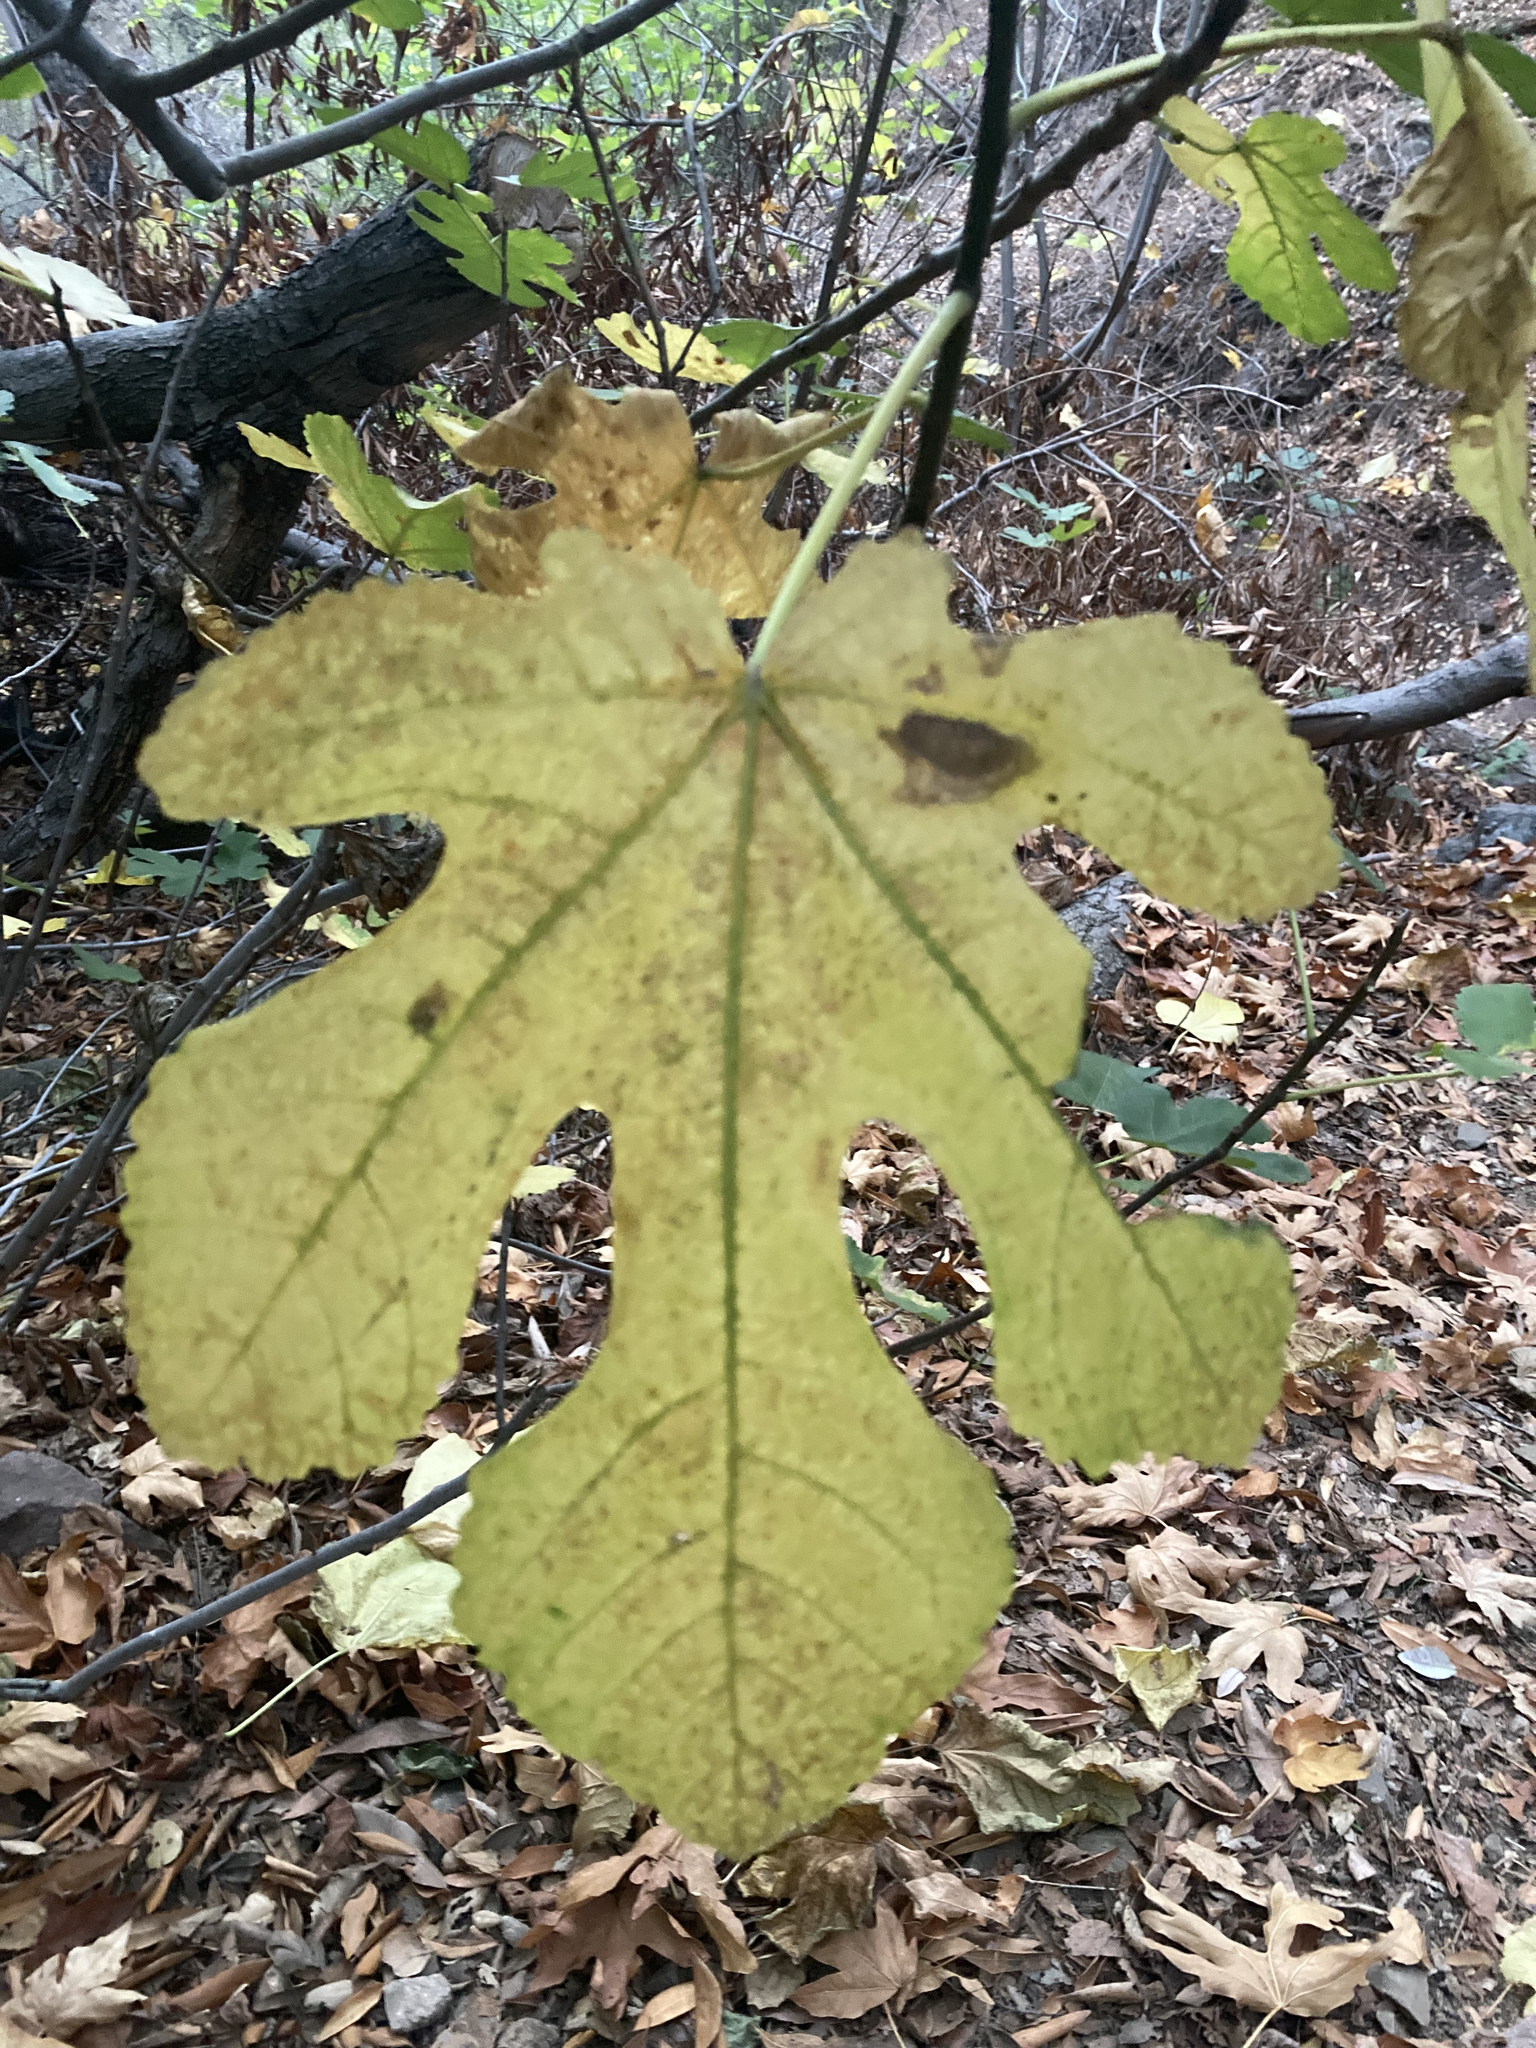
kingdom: Plantae
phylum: Tracheophyta
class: Magnoliopsida
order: Rosales
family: Moraceae
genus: Ficus
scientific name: Ficus carica
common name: Fig
